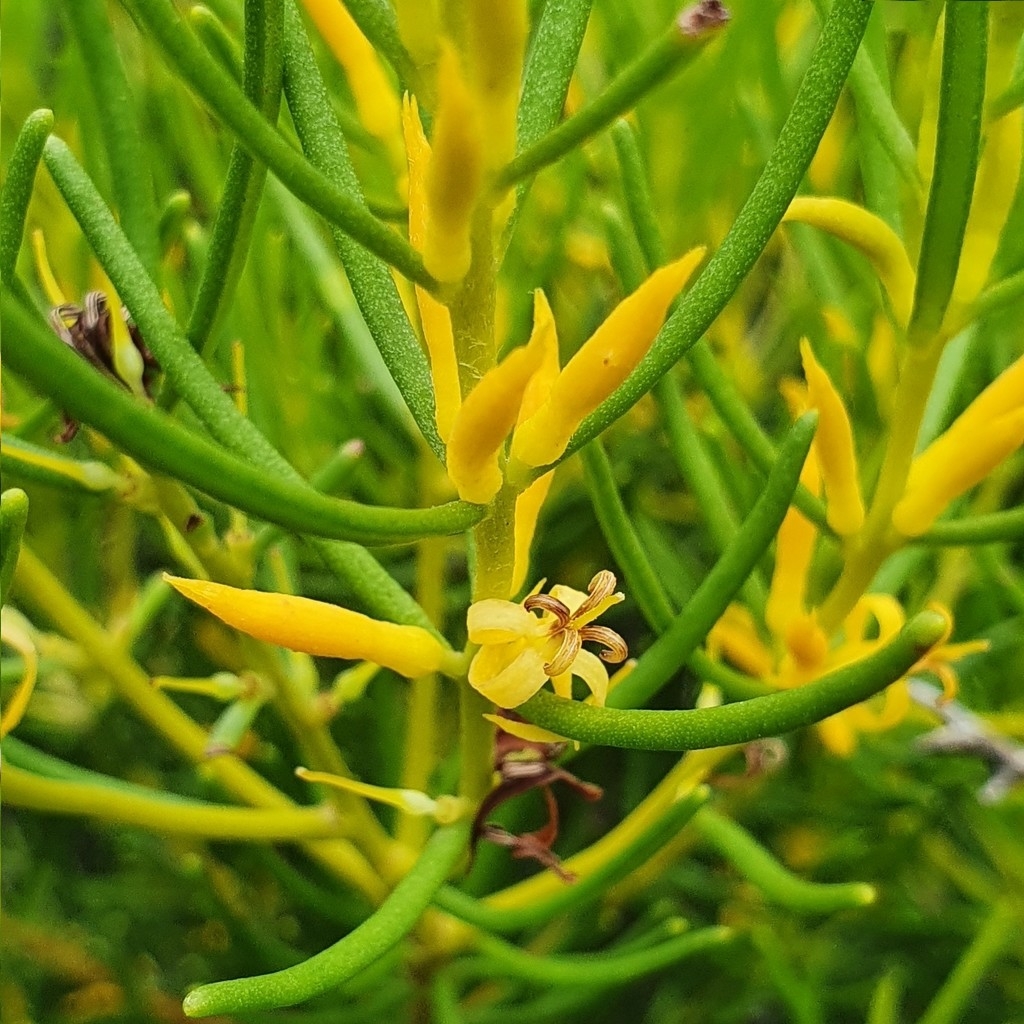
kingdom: Plantae
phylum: Tracheophyta
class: Magnoliopsida
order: Proteales
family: Proteaceae
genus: Persoonia
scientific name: Persoonia mollis
